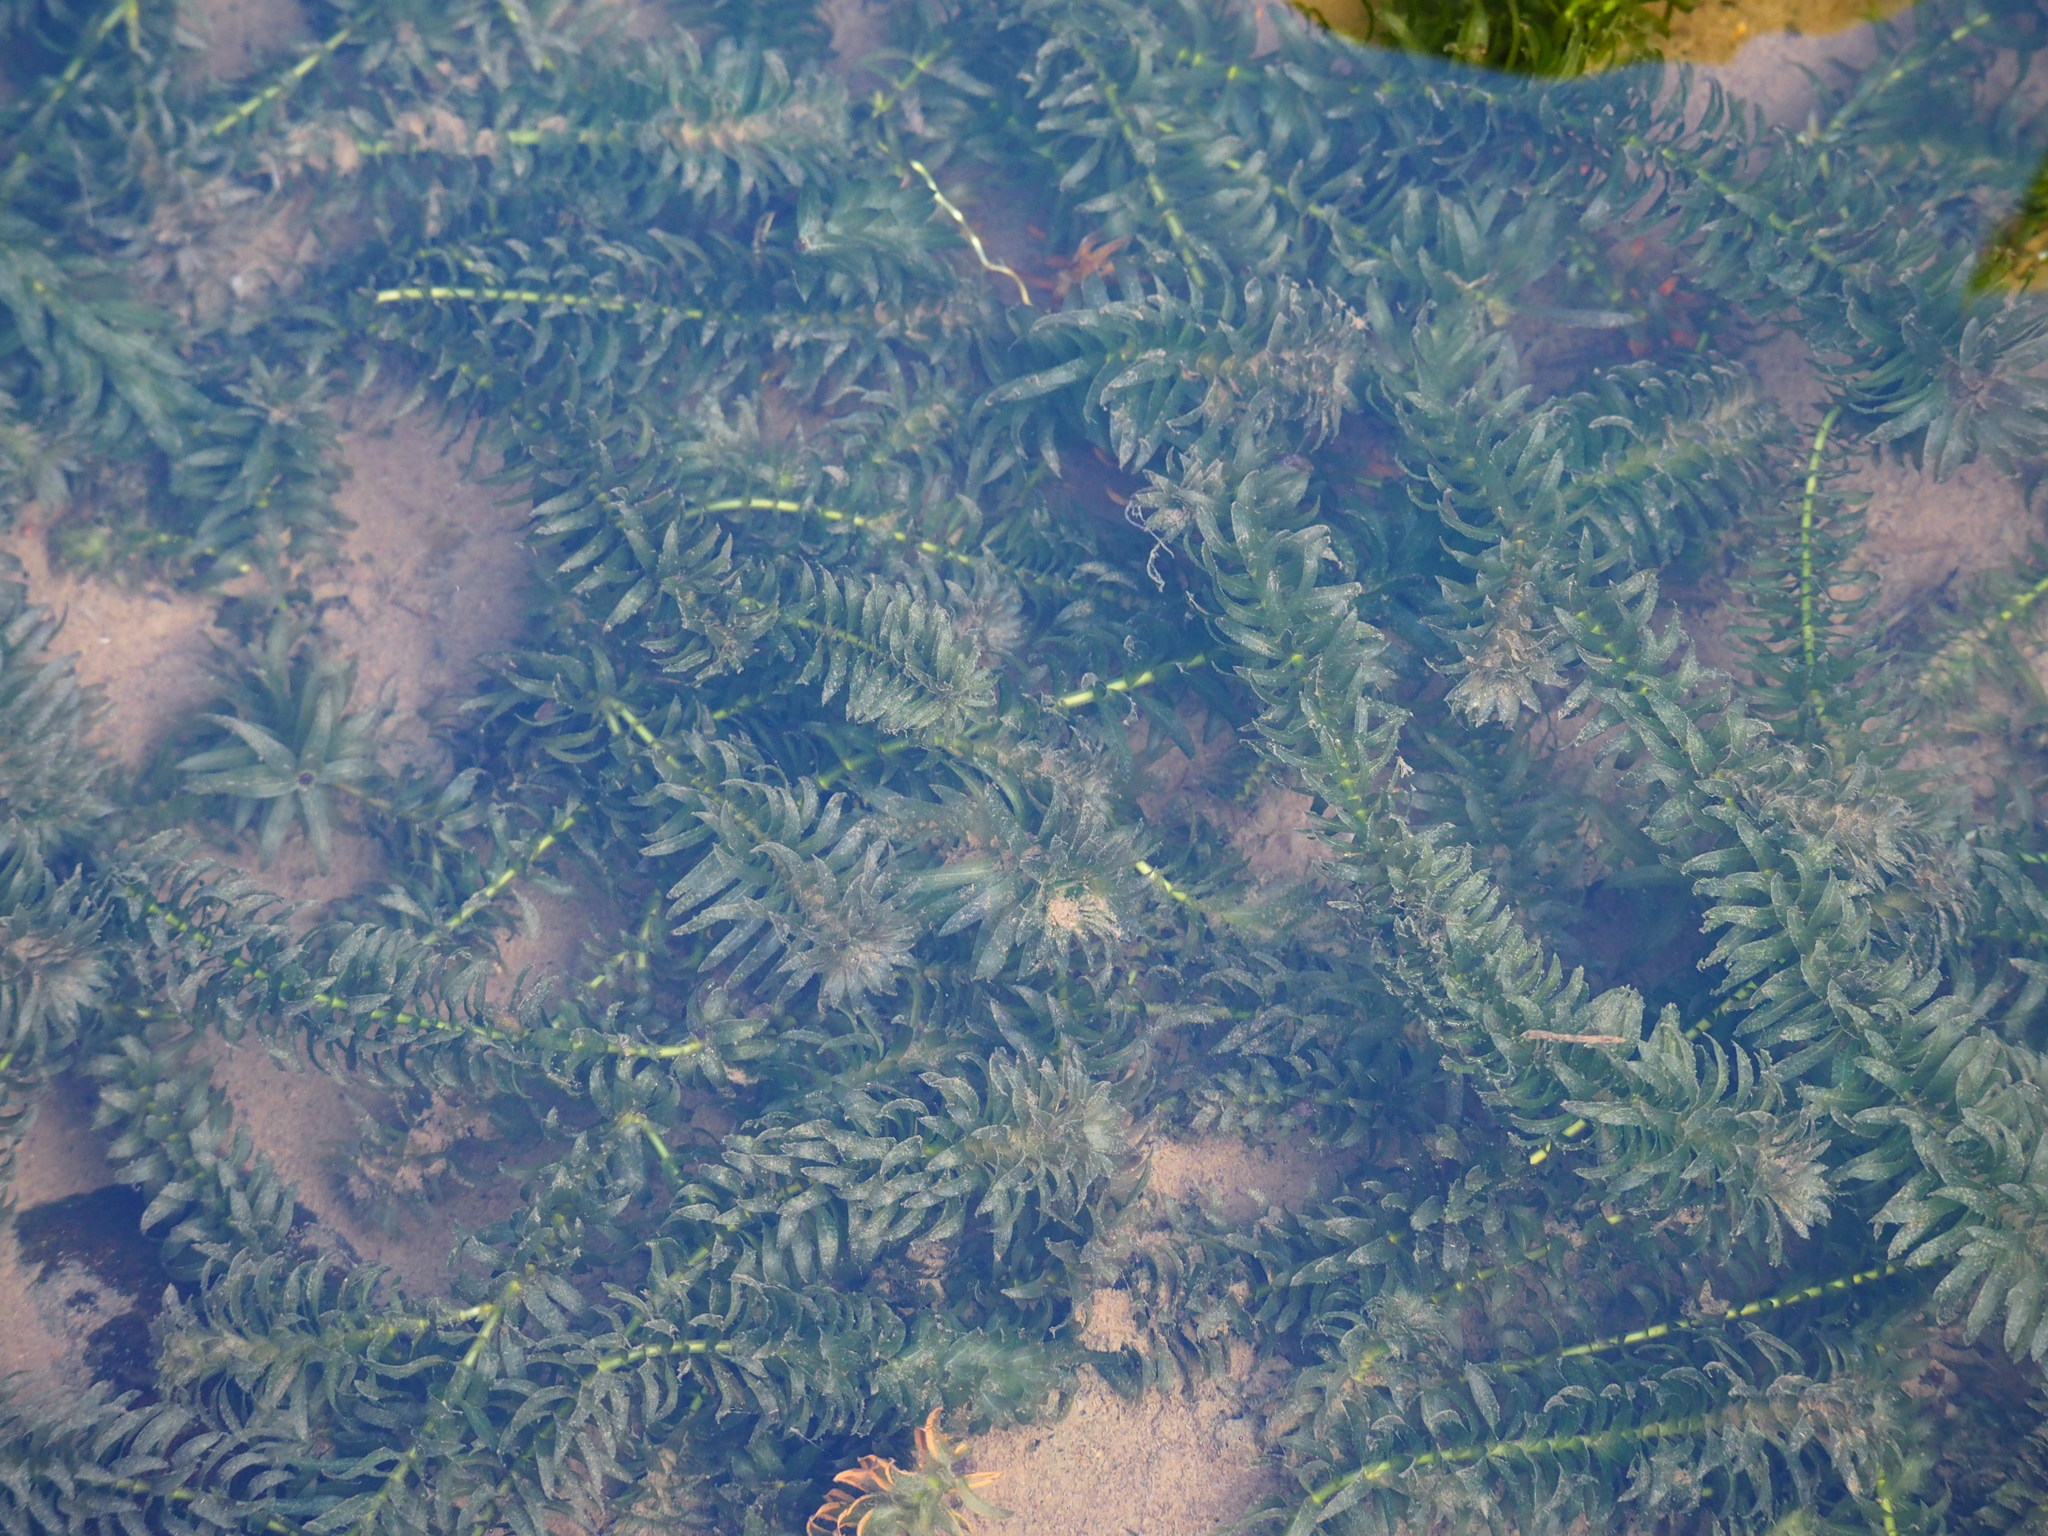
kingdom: Plantae
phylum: Tracheophyta
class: Liliopsida
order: Alismatales
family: Hydrocharitaceae
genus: Elodea
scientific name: Elodea densa
